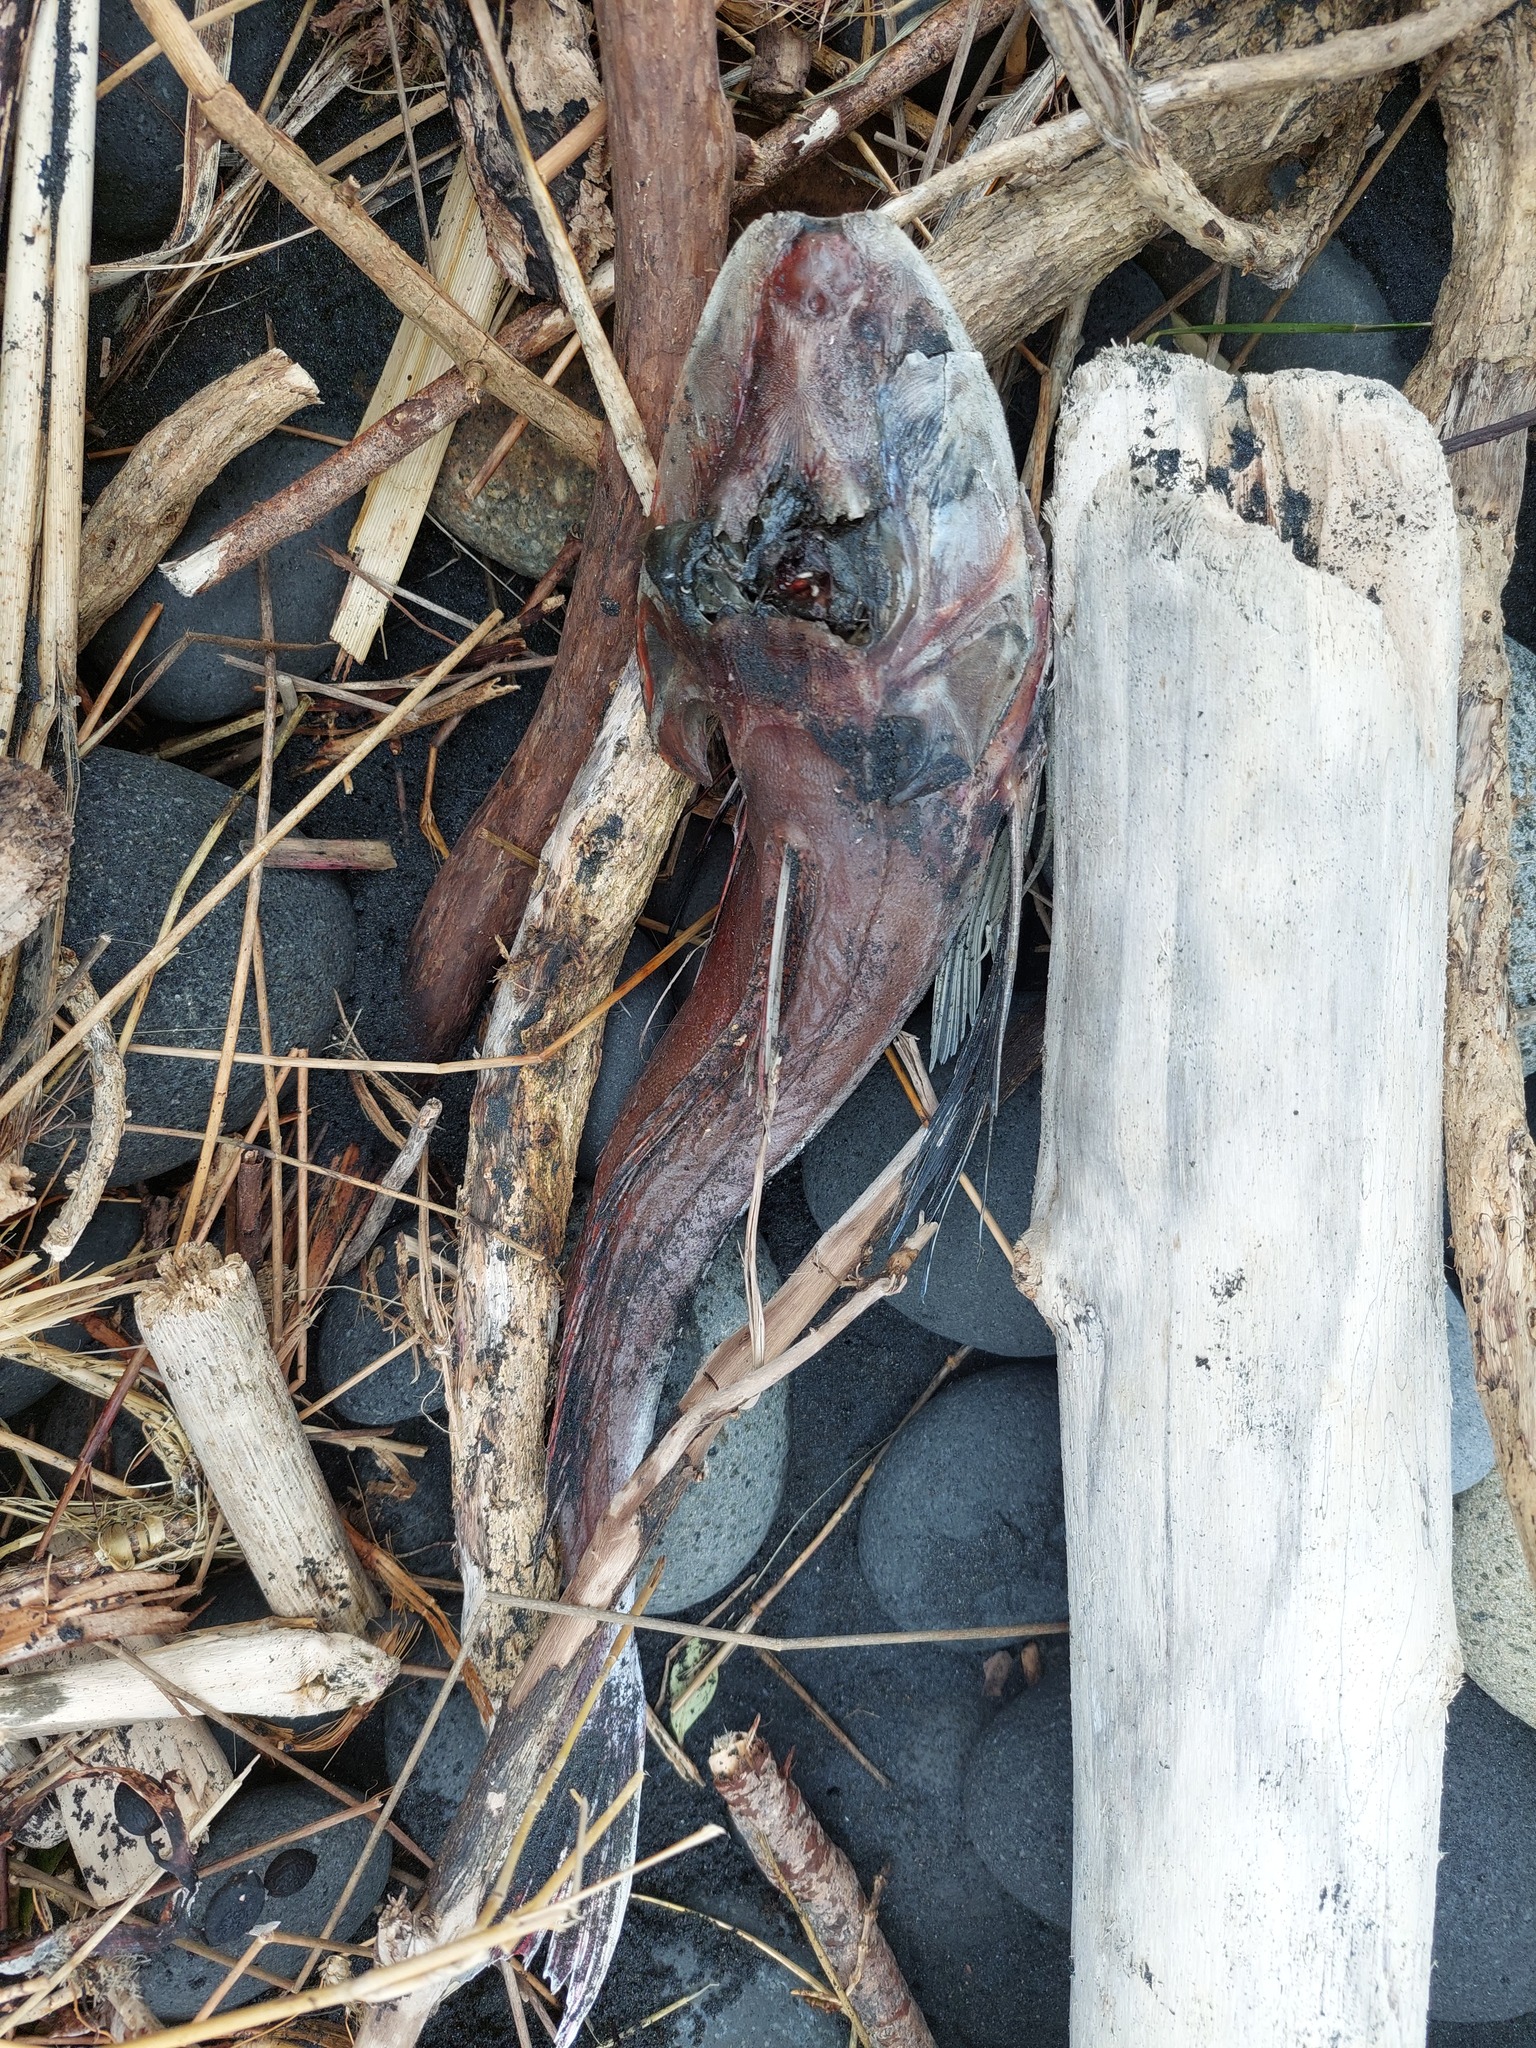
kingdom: Animalia
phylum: Chordata
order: Scorpaeniformes
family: Triglidae
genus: Chelidonichthys
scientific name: Chelidonichthys kumu
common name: Bluefin gurnard
